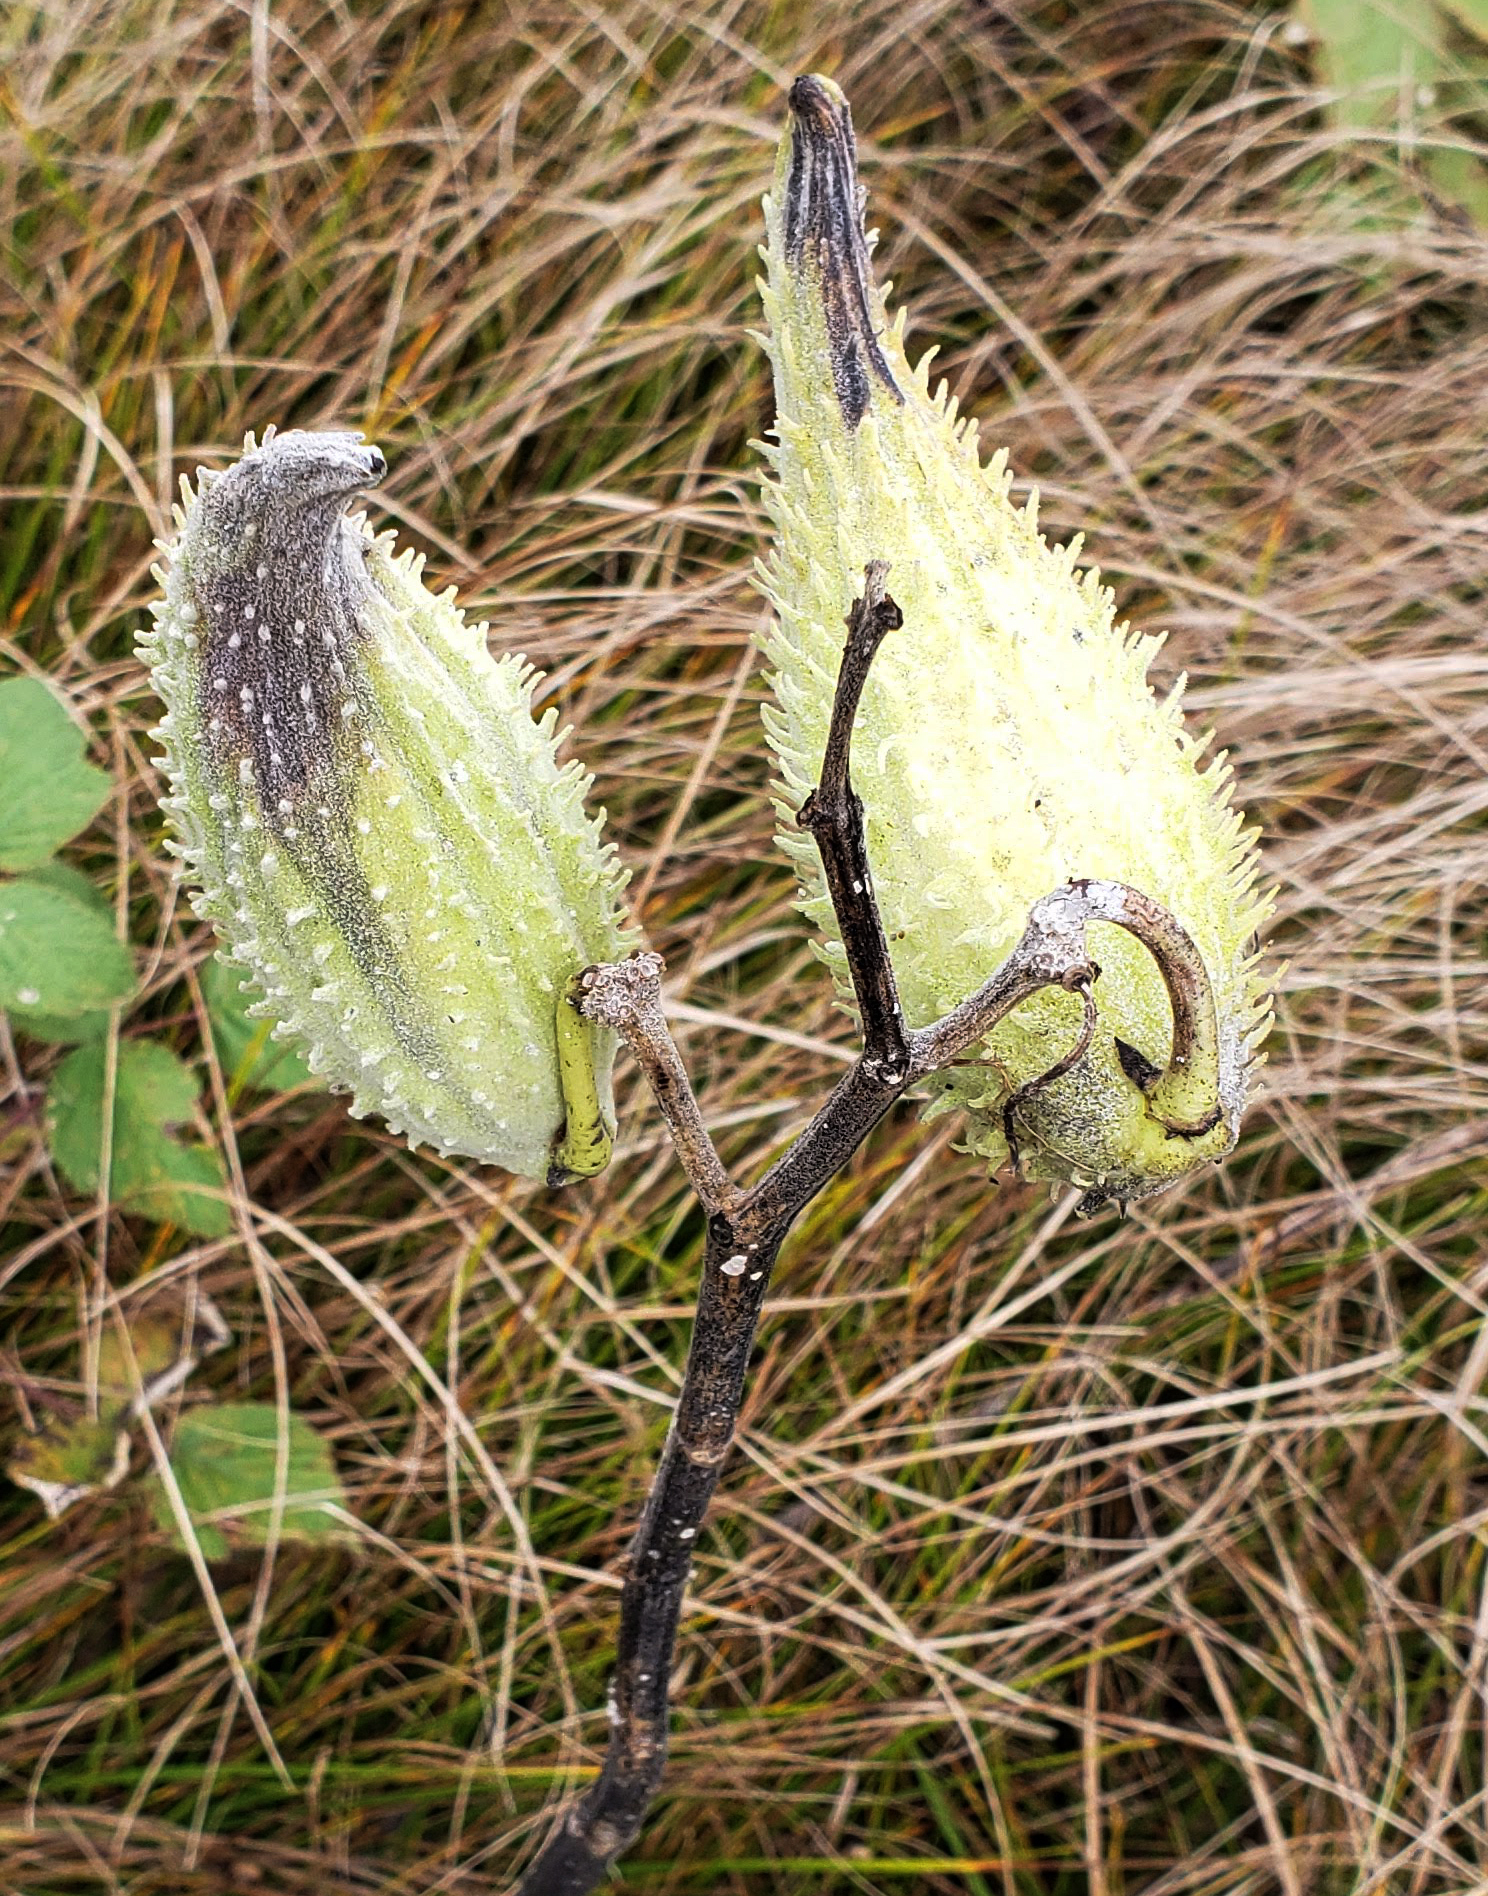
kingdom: Plantae
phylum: Tracheophyta
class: Magnoliopsida
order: Gentianales
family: Apocynaceae
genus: Asclepias
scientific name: Asclepias syriaca
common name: Common milkweed
